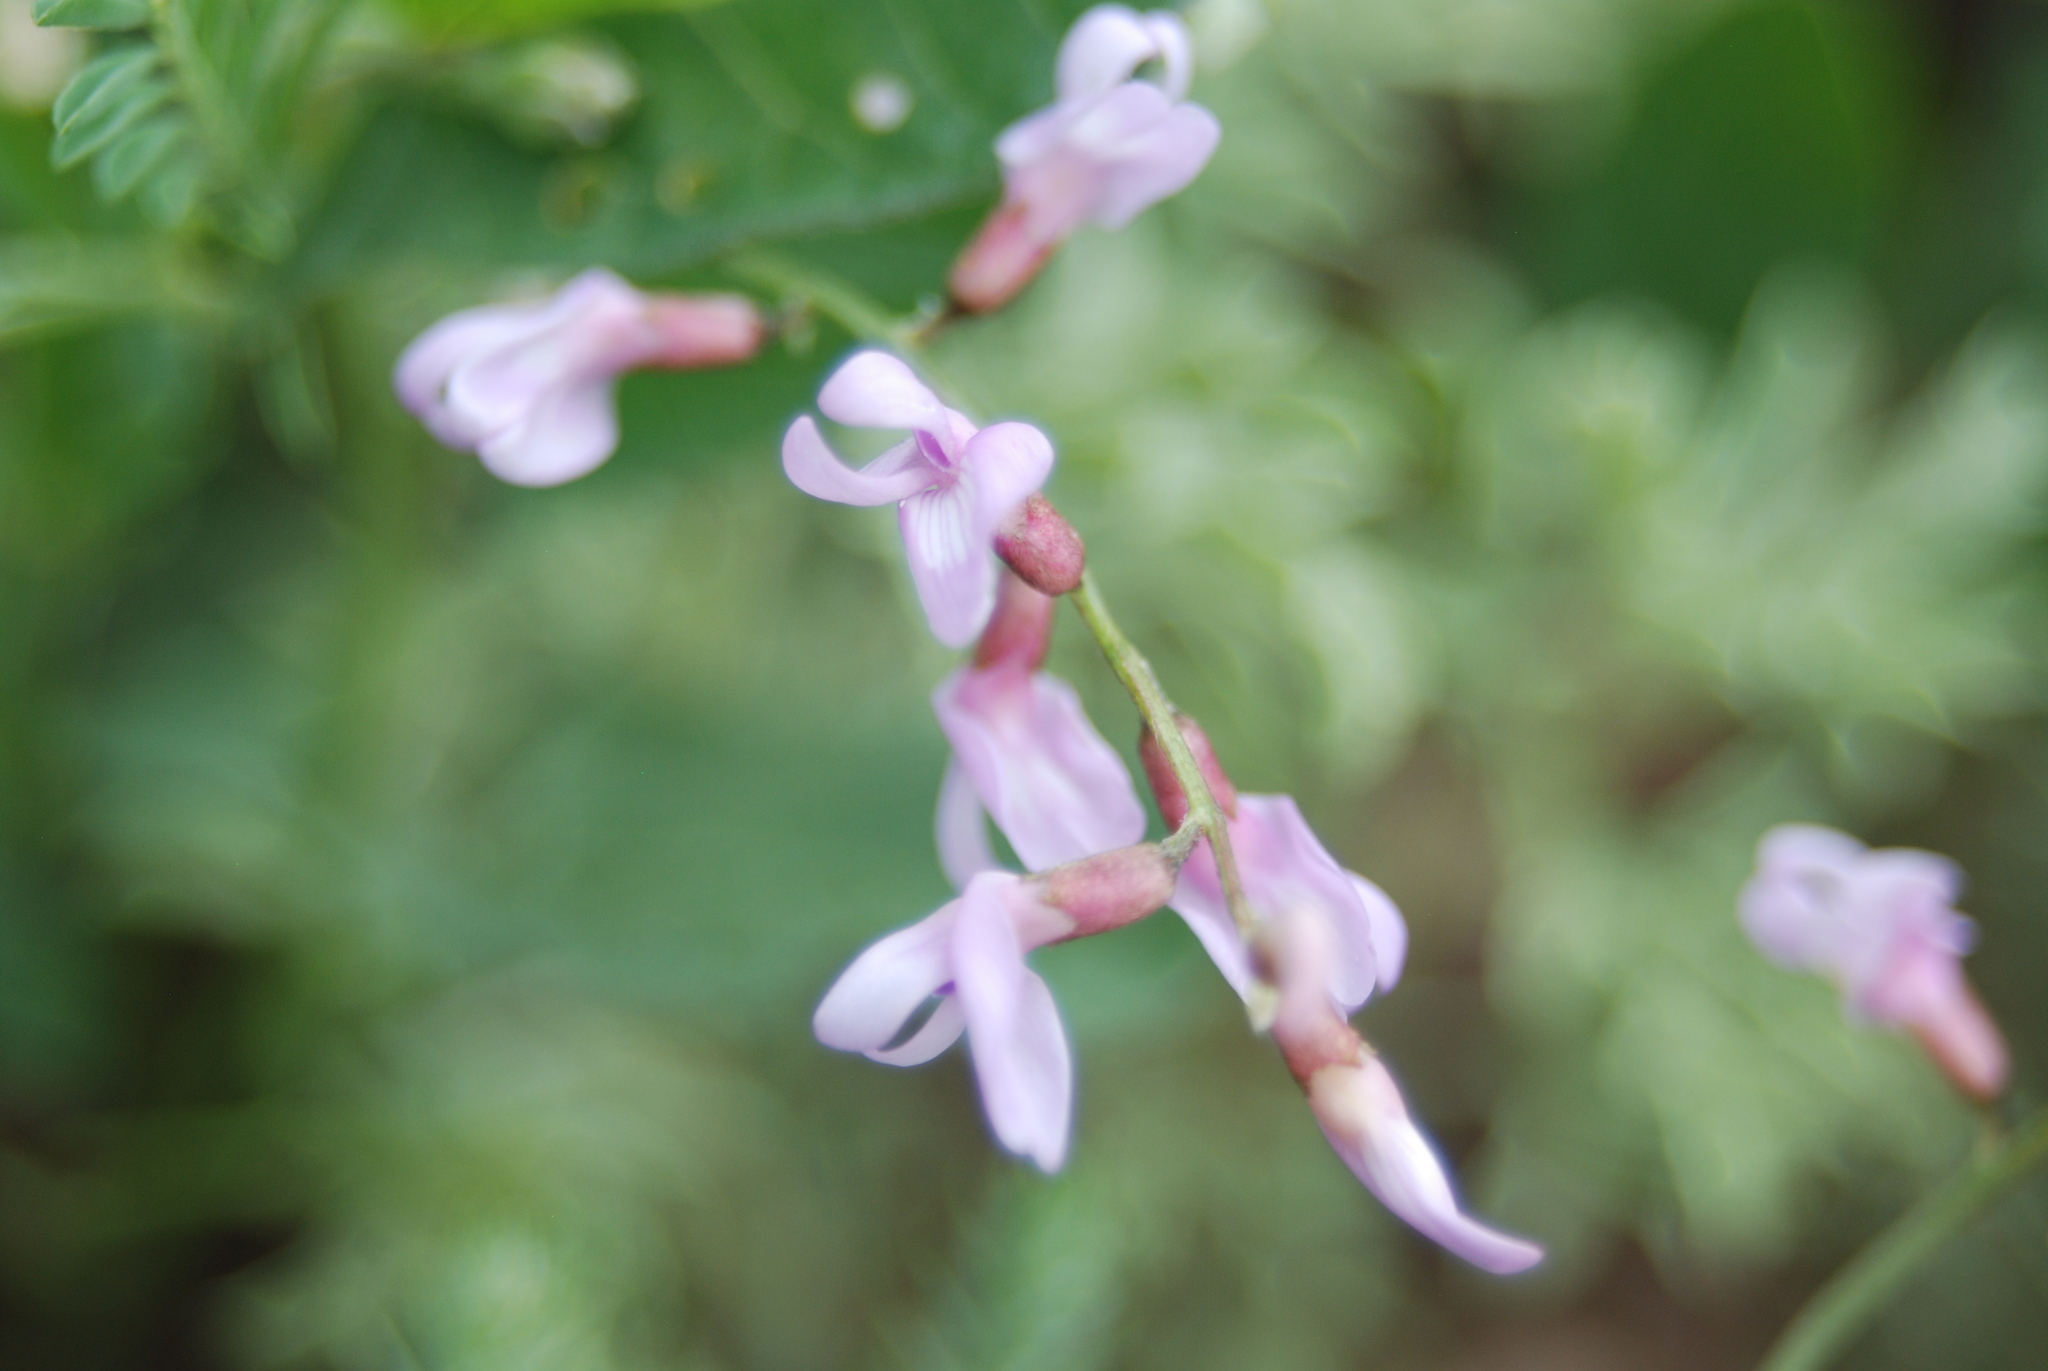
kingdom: Plantae
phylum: Tracheophyta
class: Magnoliopsida
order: Fabales
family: Fabaceae
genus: Astragalus
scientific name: Astragalus flexuosus
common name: Pliant milk-vetch
